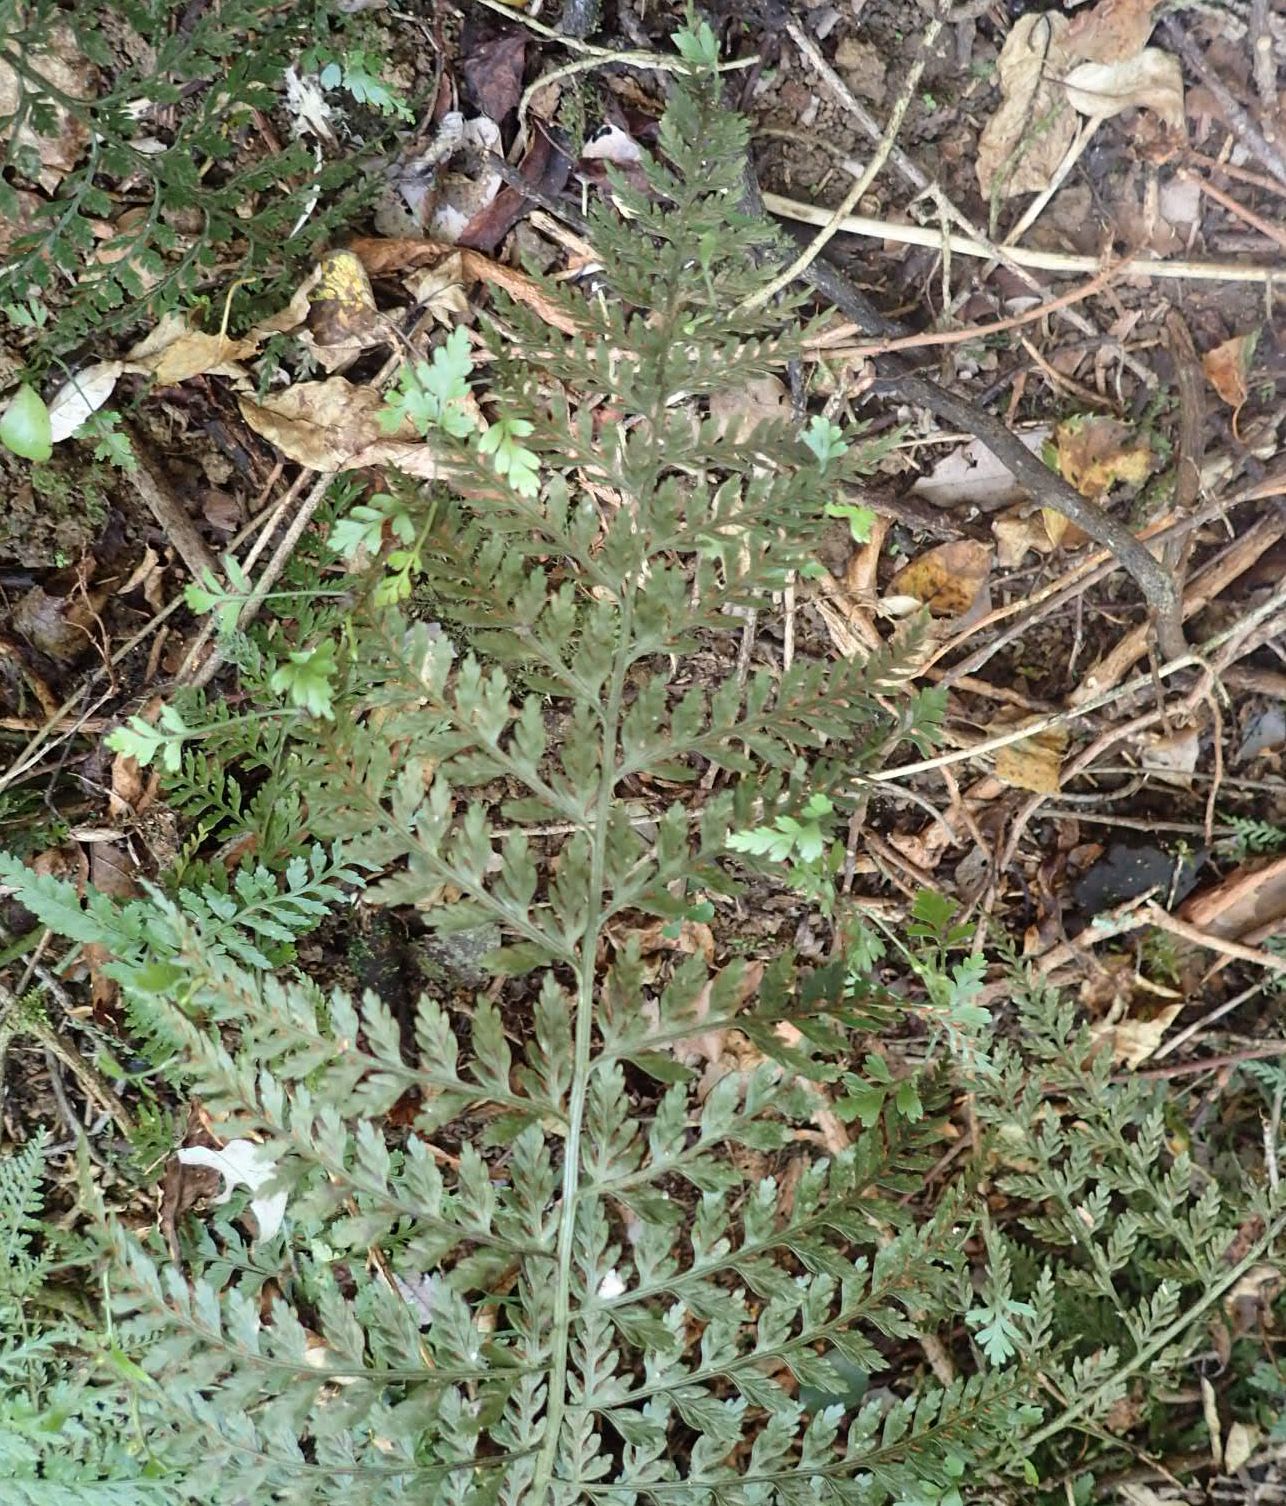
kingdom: Plantae
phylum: Tracheophyta
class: Polypodiopsida
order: Polypodiales
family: Aspleniaceae
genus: Asplenium
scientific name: Asplenium
